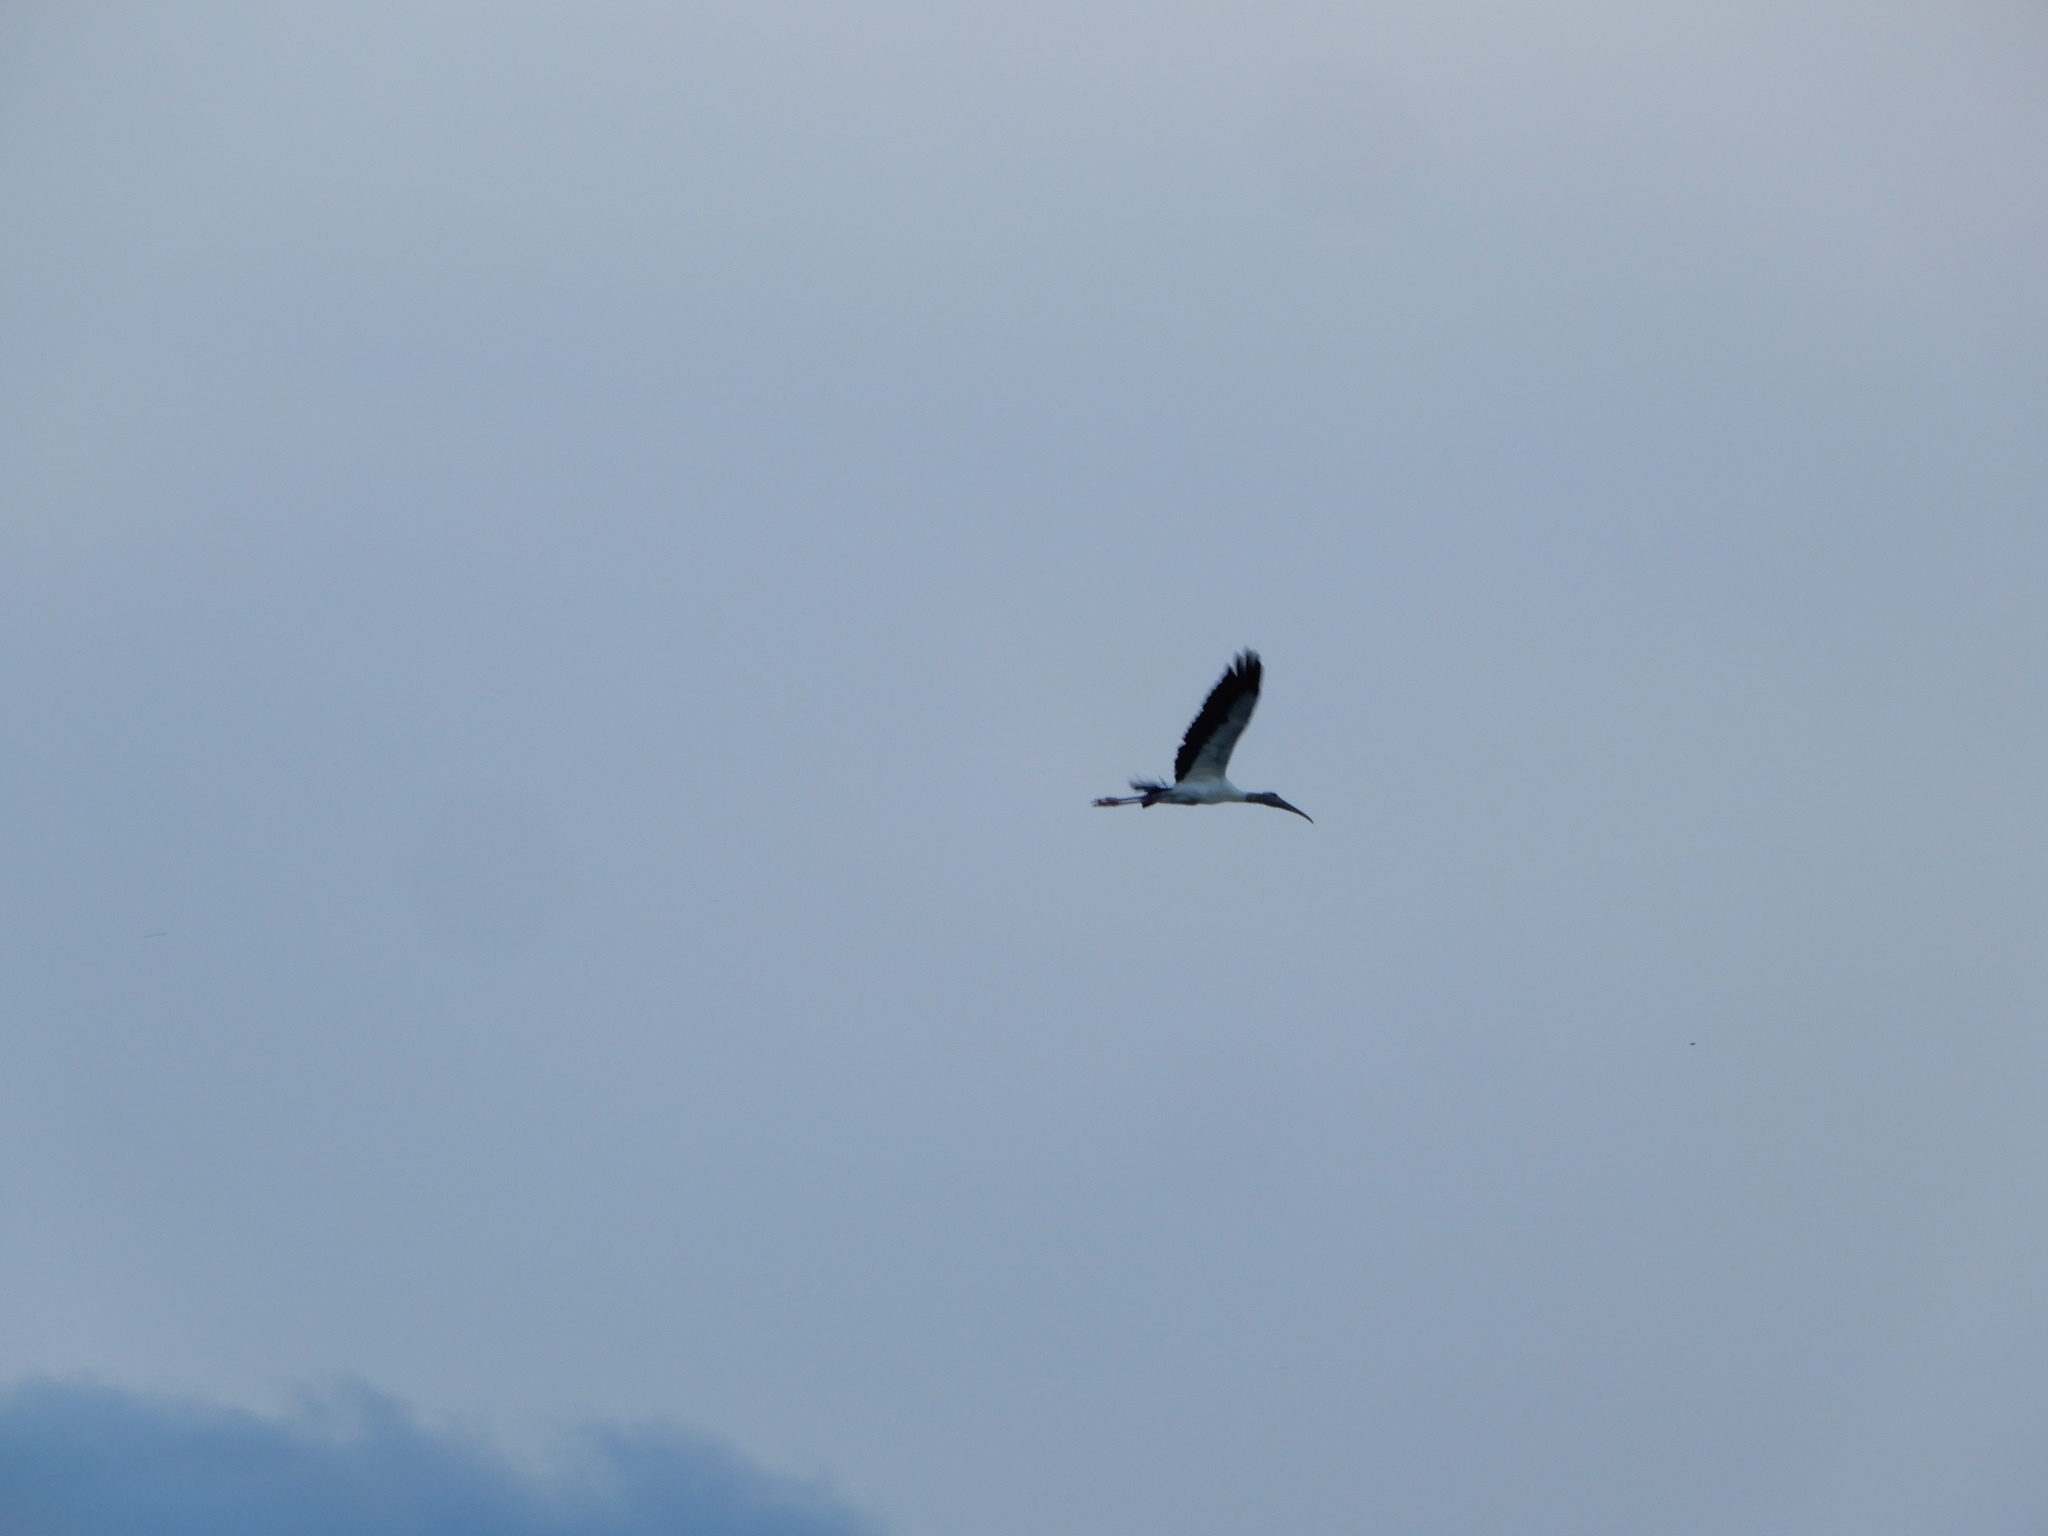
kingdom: Animalia
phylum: Chordata
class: Aves
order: Ciconiiformes
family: Ciconiidae
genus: Mycteria
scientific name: Mycteria americana
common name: Wood stork
